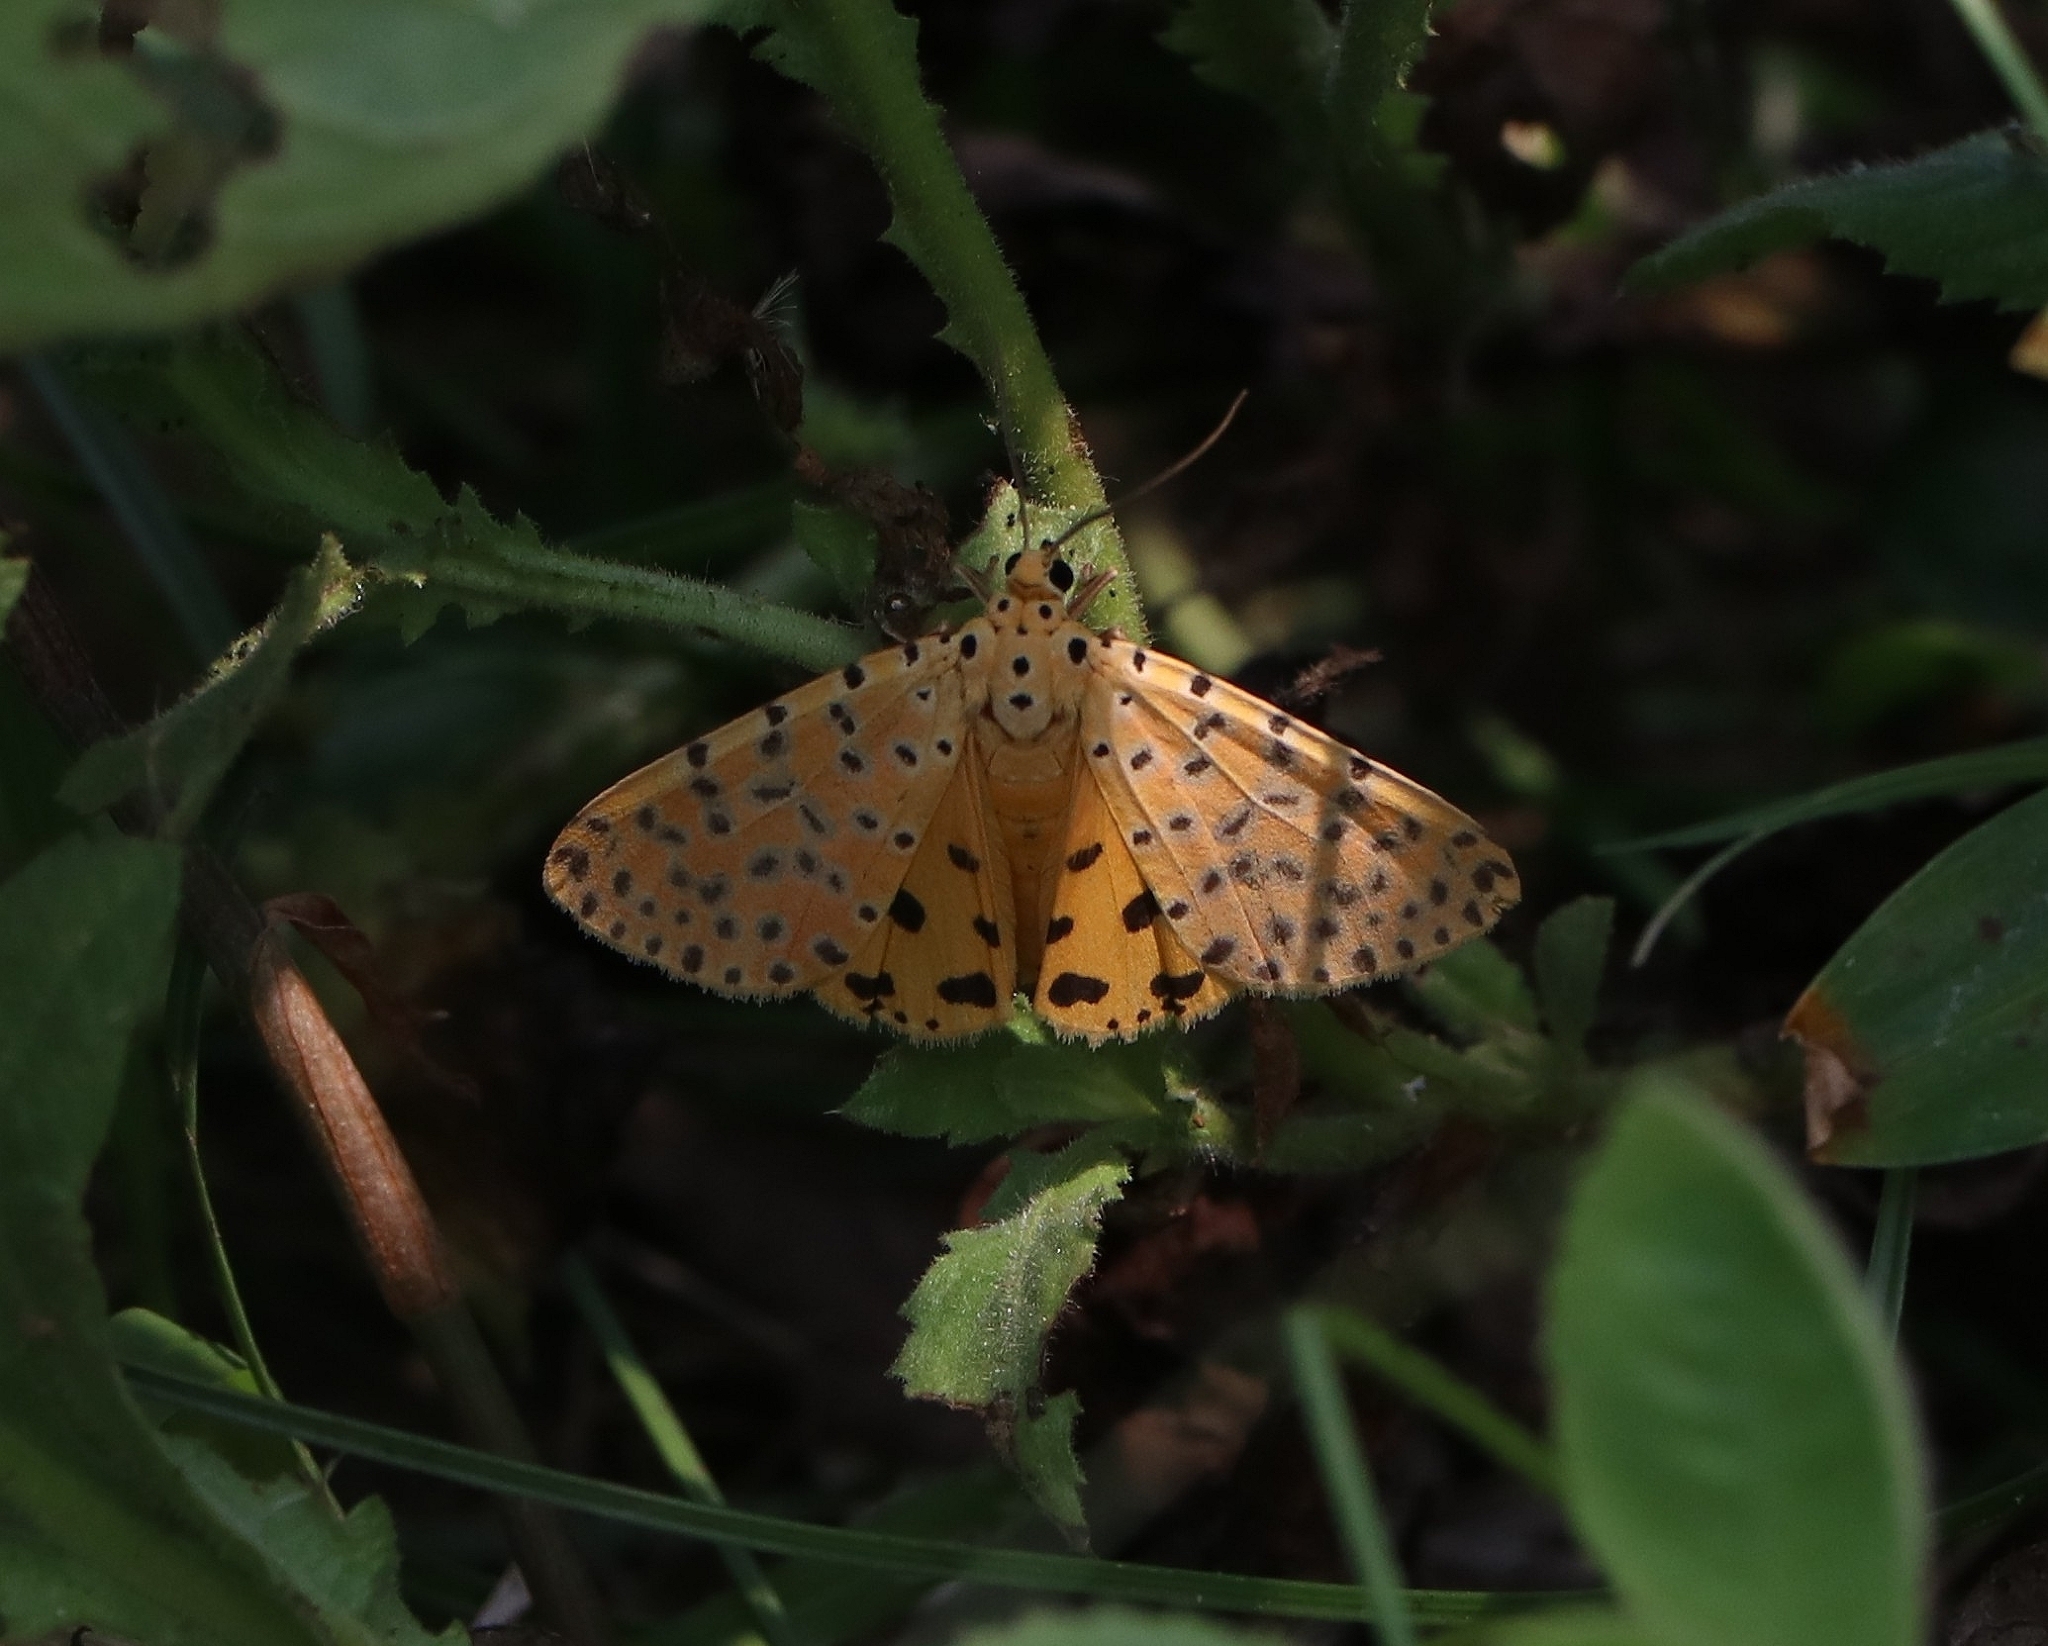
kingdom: Animalia
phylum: Arthropoda
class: Insecta
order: Lepidoptera
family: Erebidae
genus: Argina
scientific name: Argina astrea
